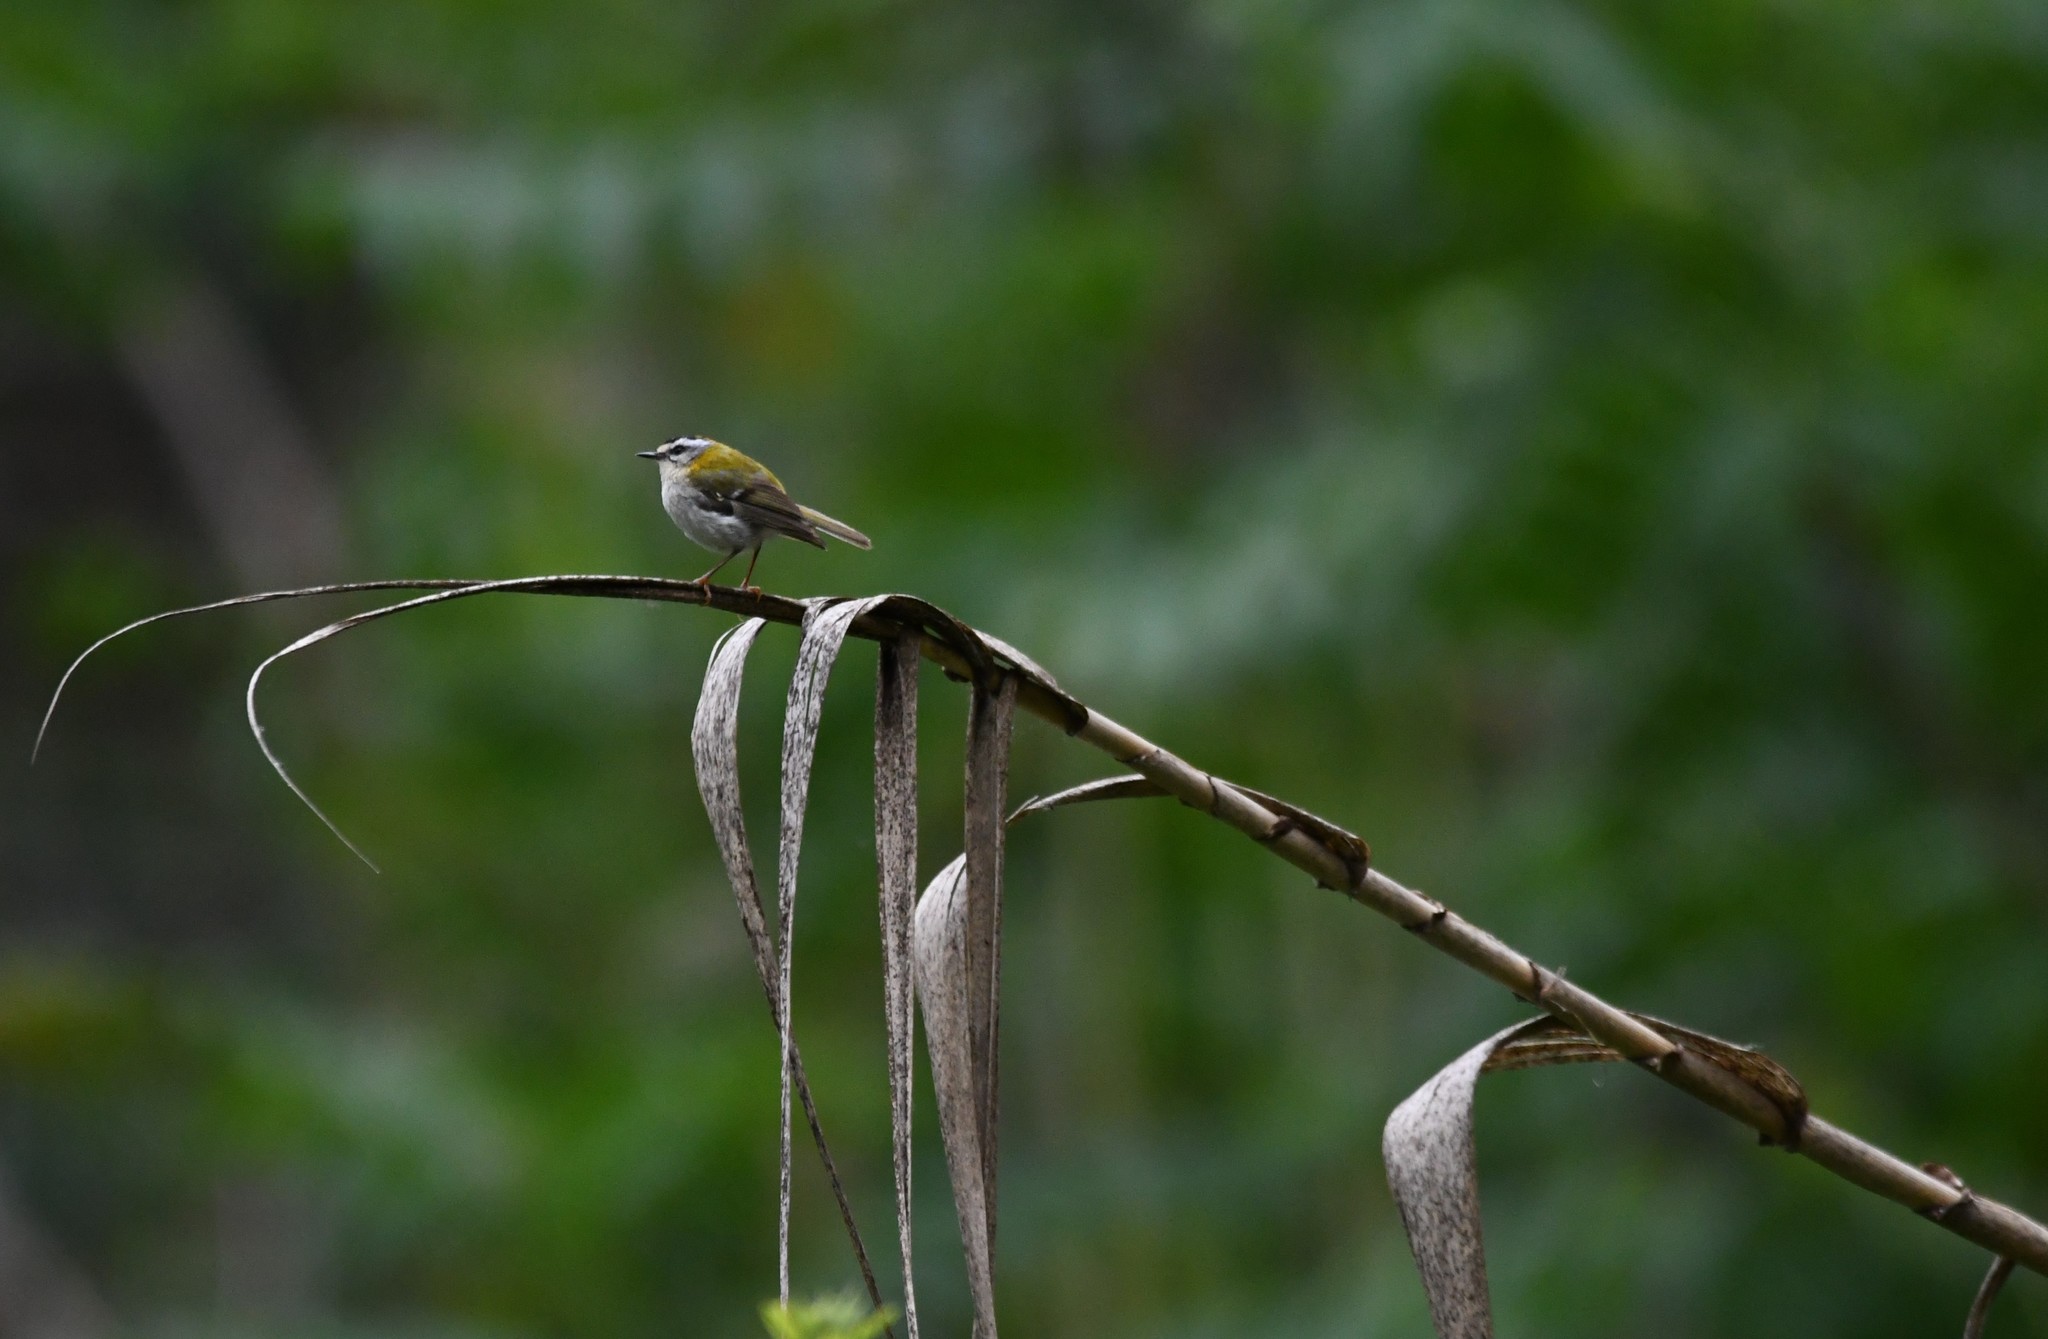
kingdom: Animalia
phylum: Chordata
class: Aves
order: Passeriformes
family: Regulidae
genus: Regulus
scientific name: Regulus ignicapilla
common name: Firecrest
